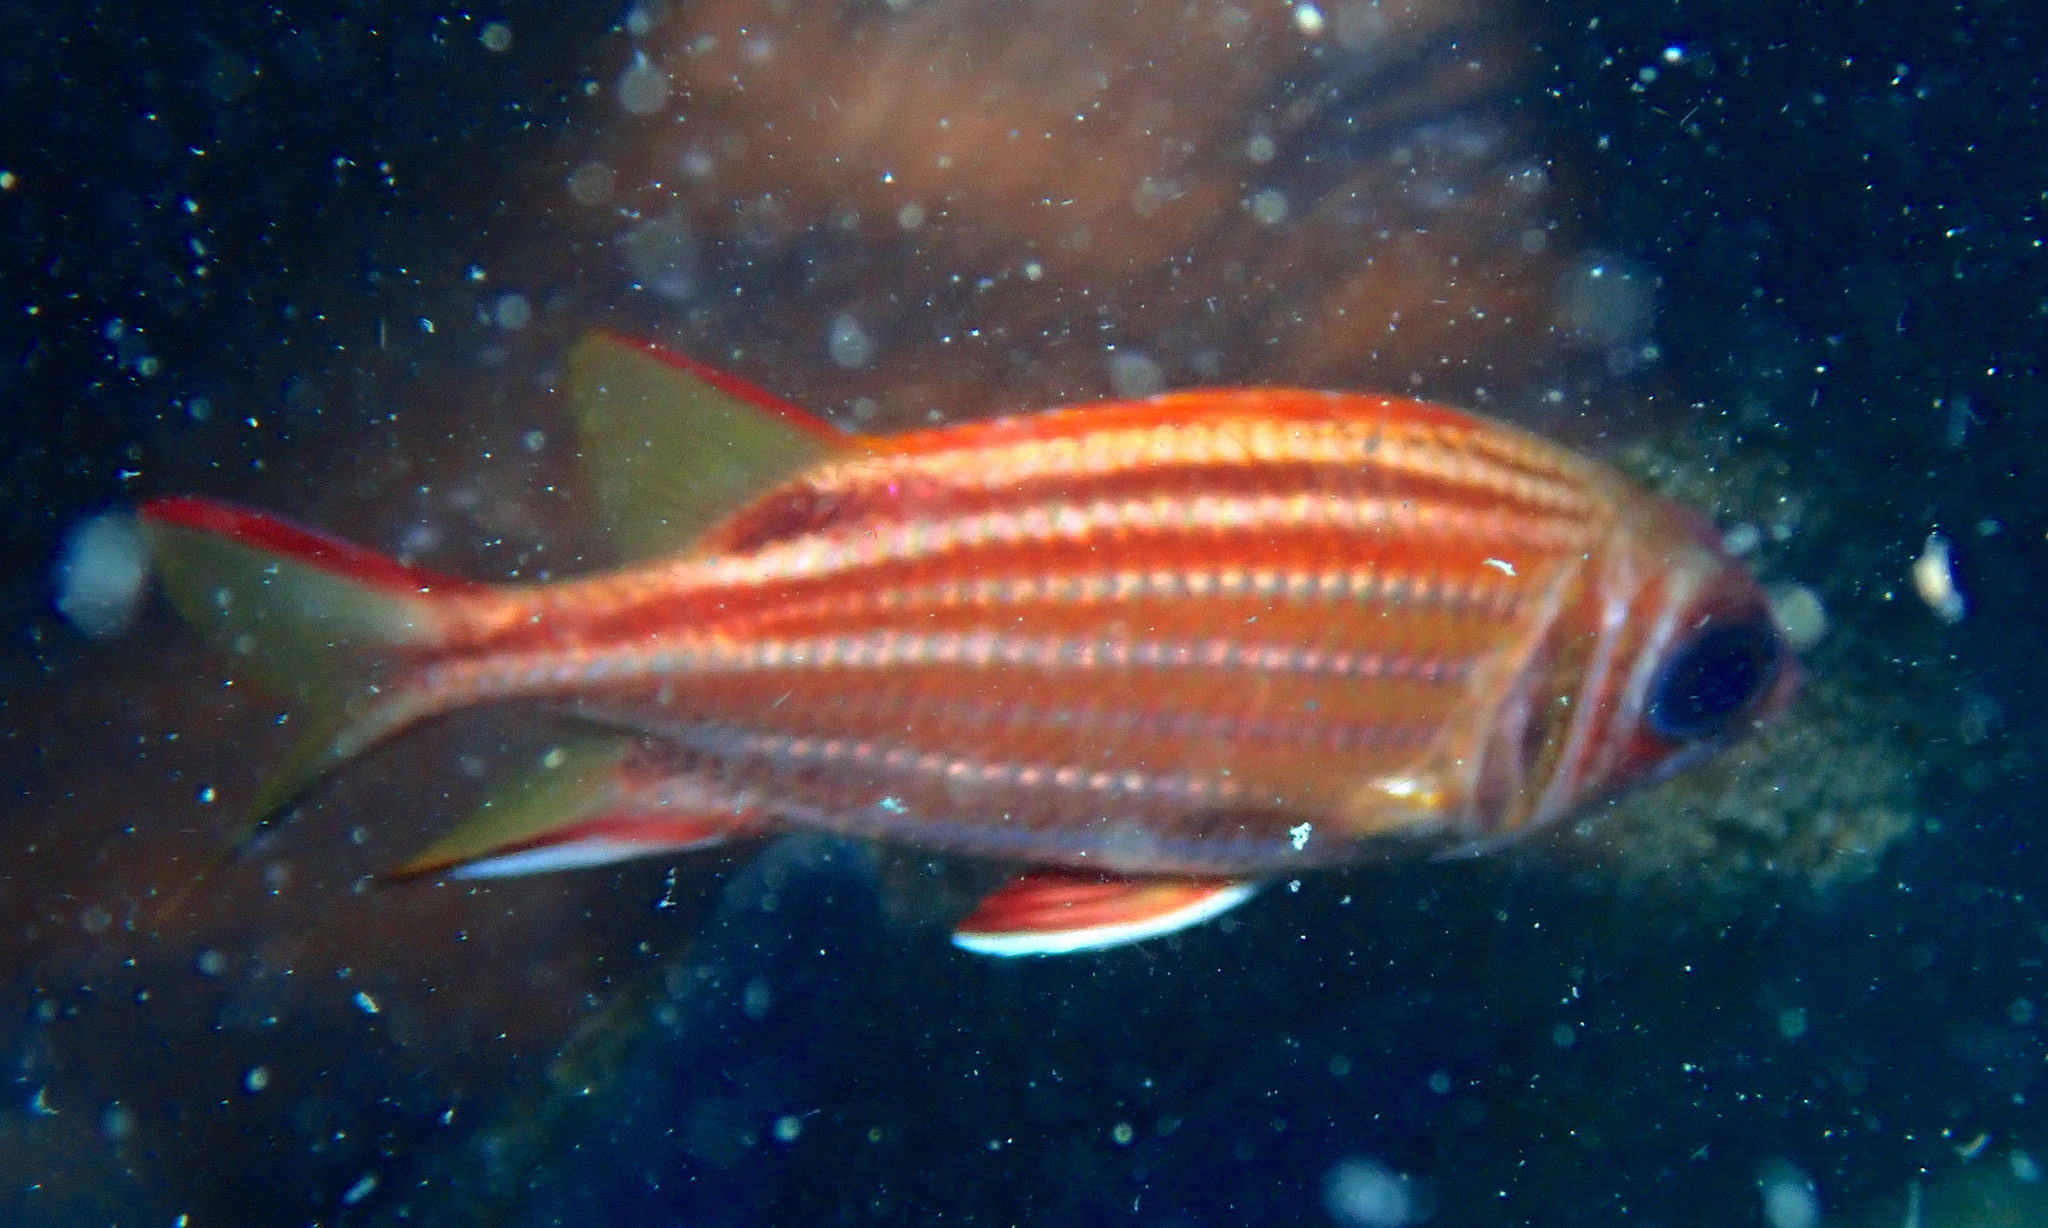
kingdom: Animalia
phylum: Chordata
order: Beryciformes
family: Holocentridae
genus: Sargocentron
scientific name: Sargocentron rubrum
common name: Redcoat
